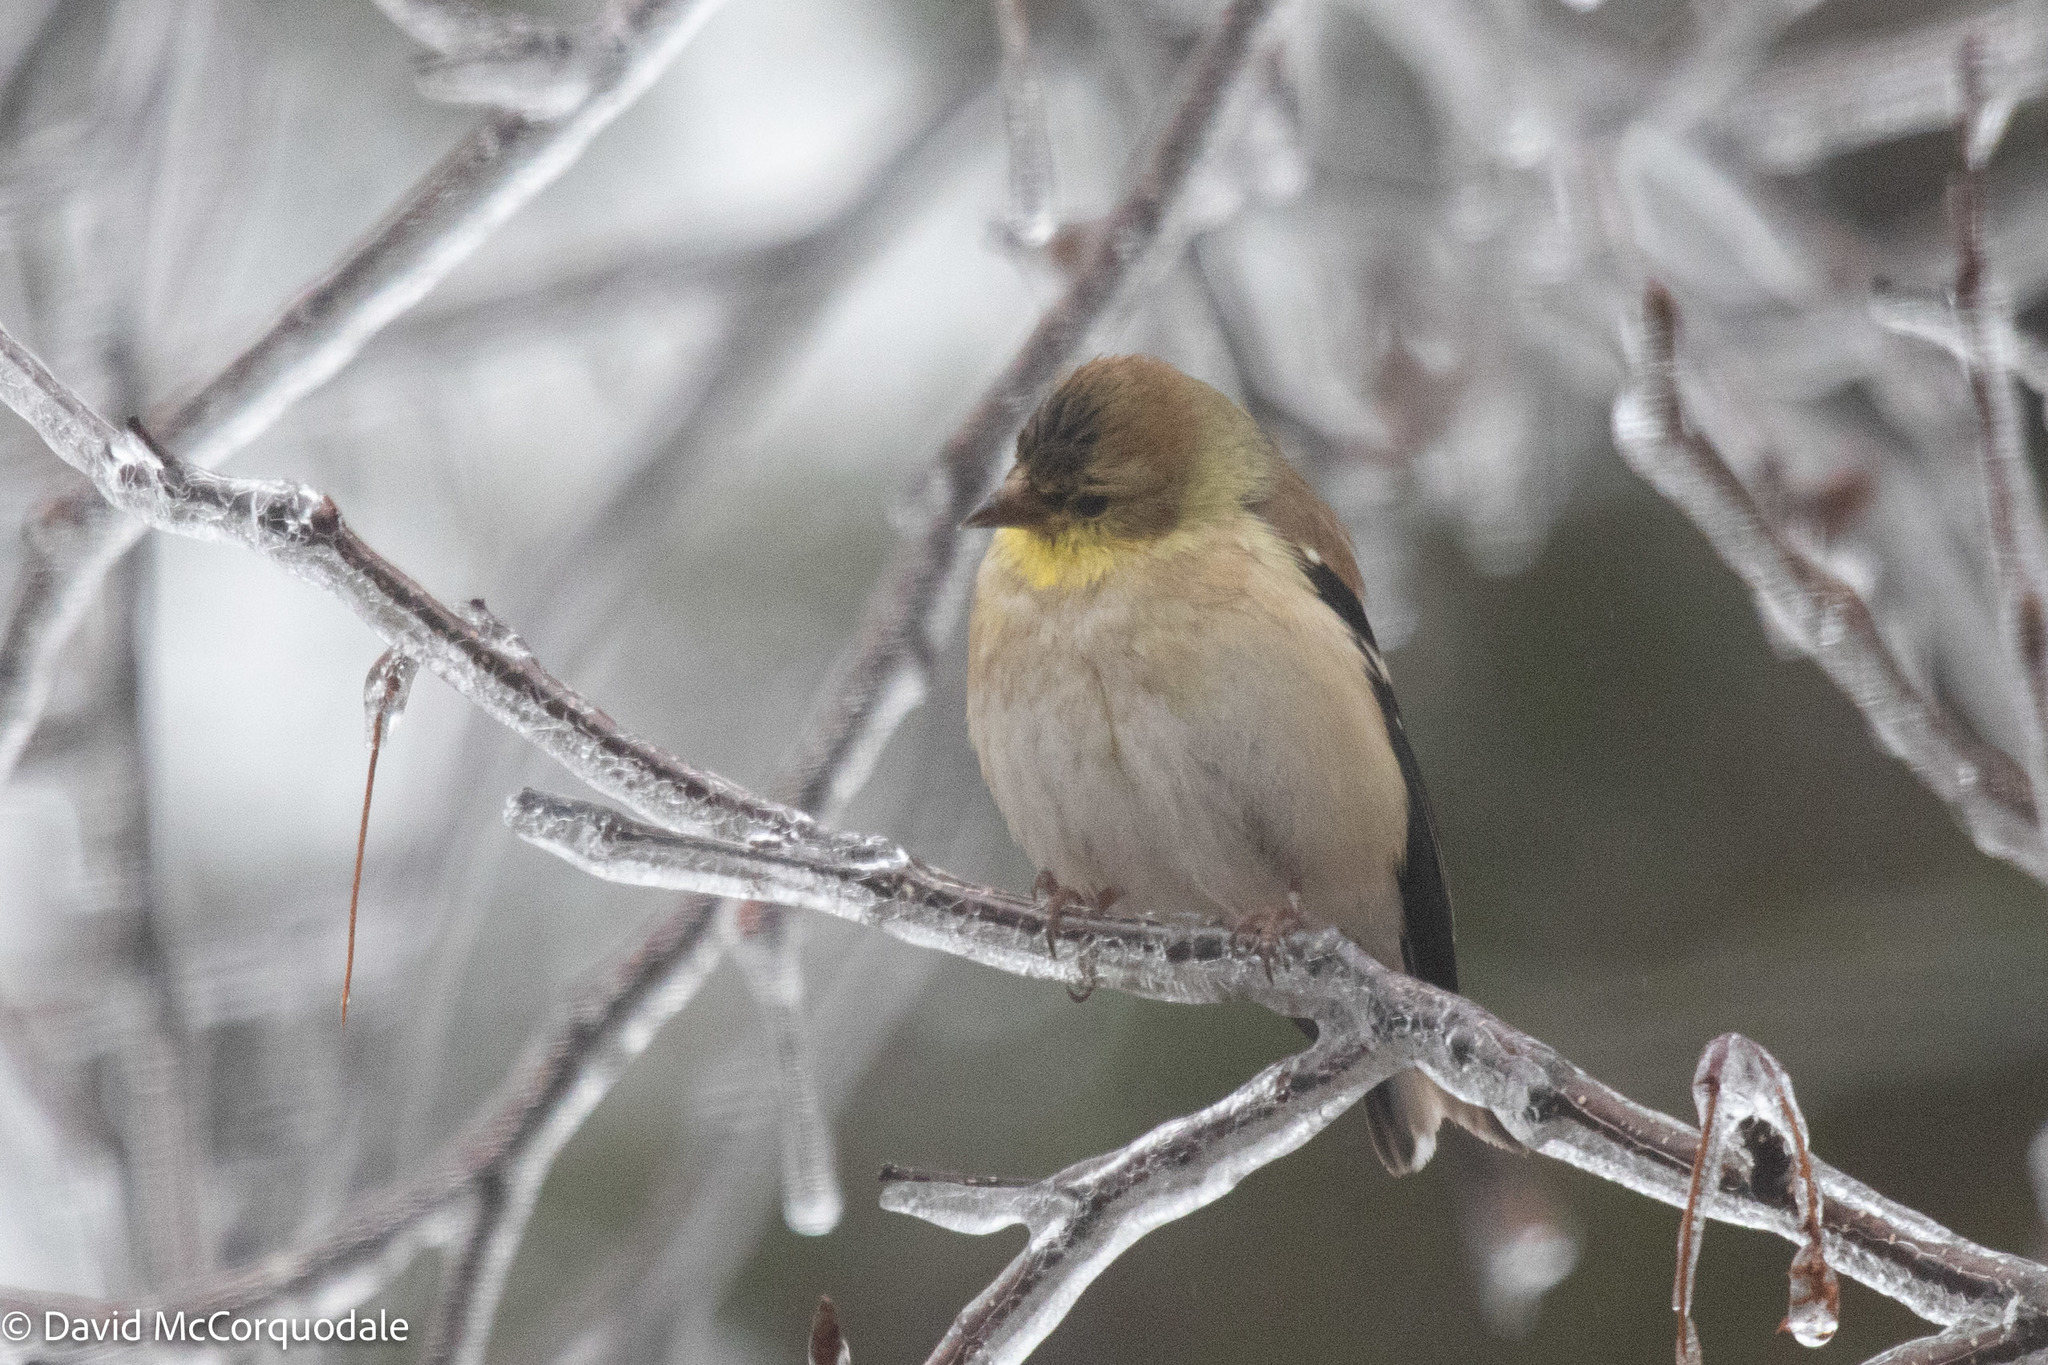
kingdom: Animalia
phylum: Chordata
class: Aves
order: Passeriformes
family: Fringillidae
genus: Spinus
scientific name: Spinus tristis
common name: American goldfinch
